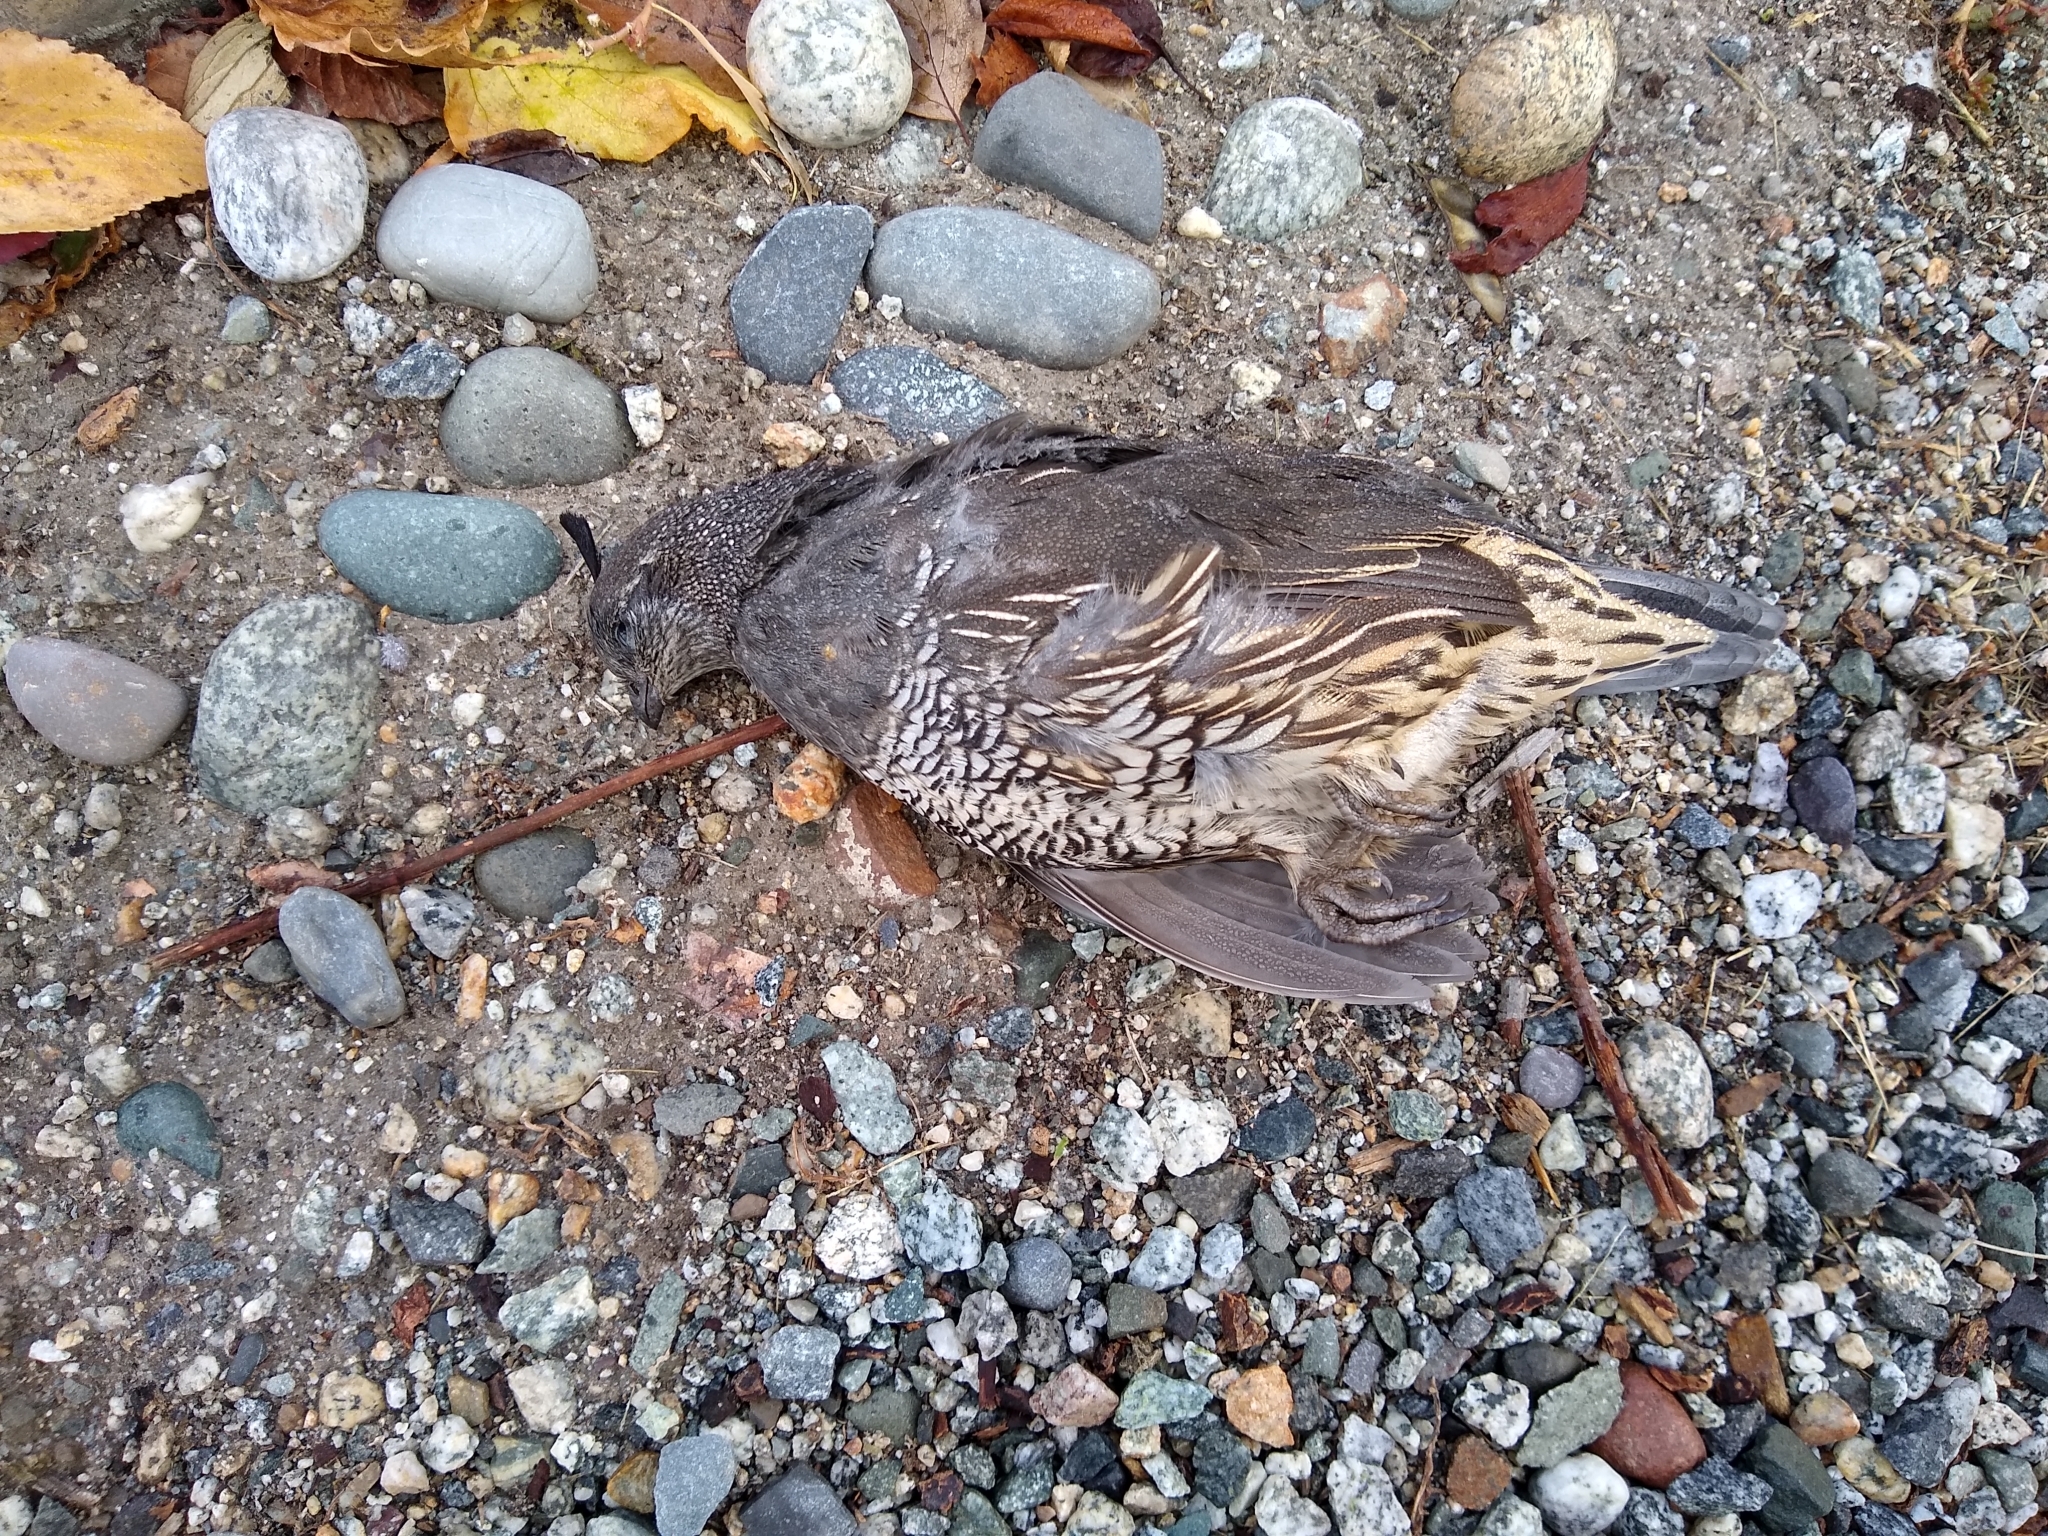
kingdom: Animalia
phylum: Chordata
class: Aves
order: Galliformes
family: Odontophoridae
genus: Callipepla
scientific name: Callipepla californica
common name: California quail
